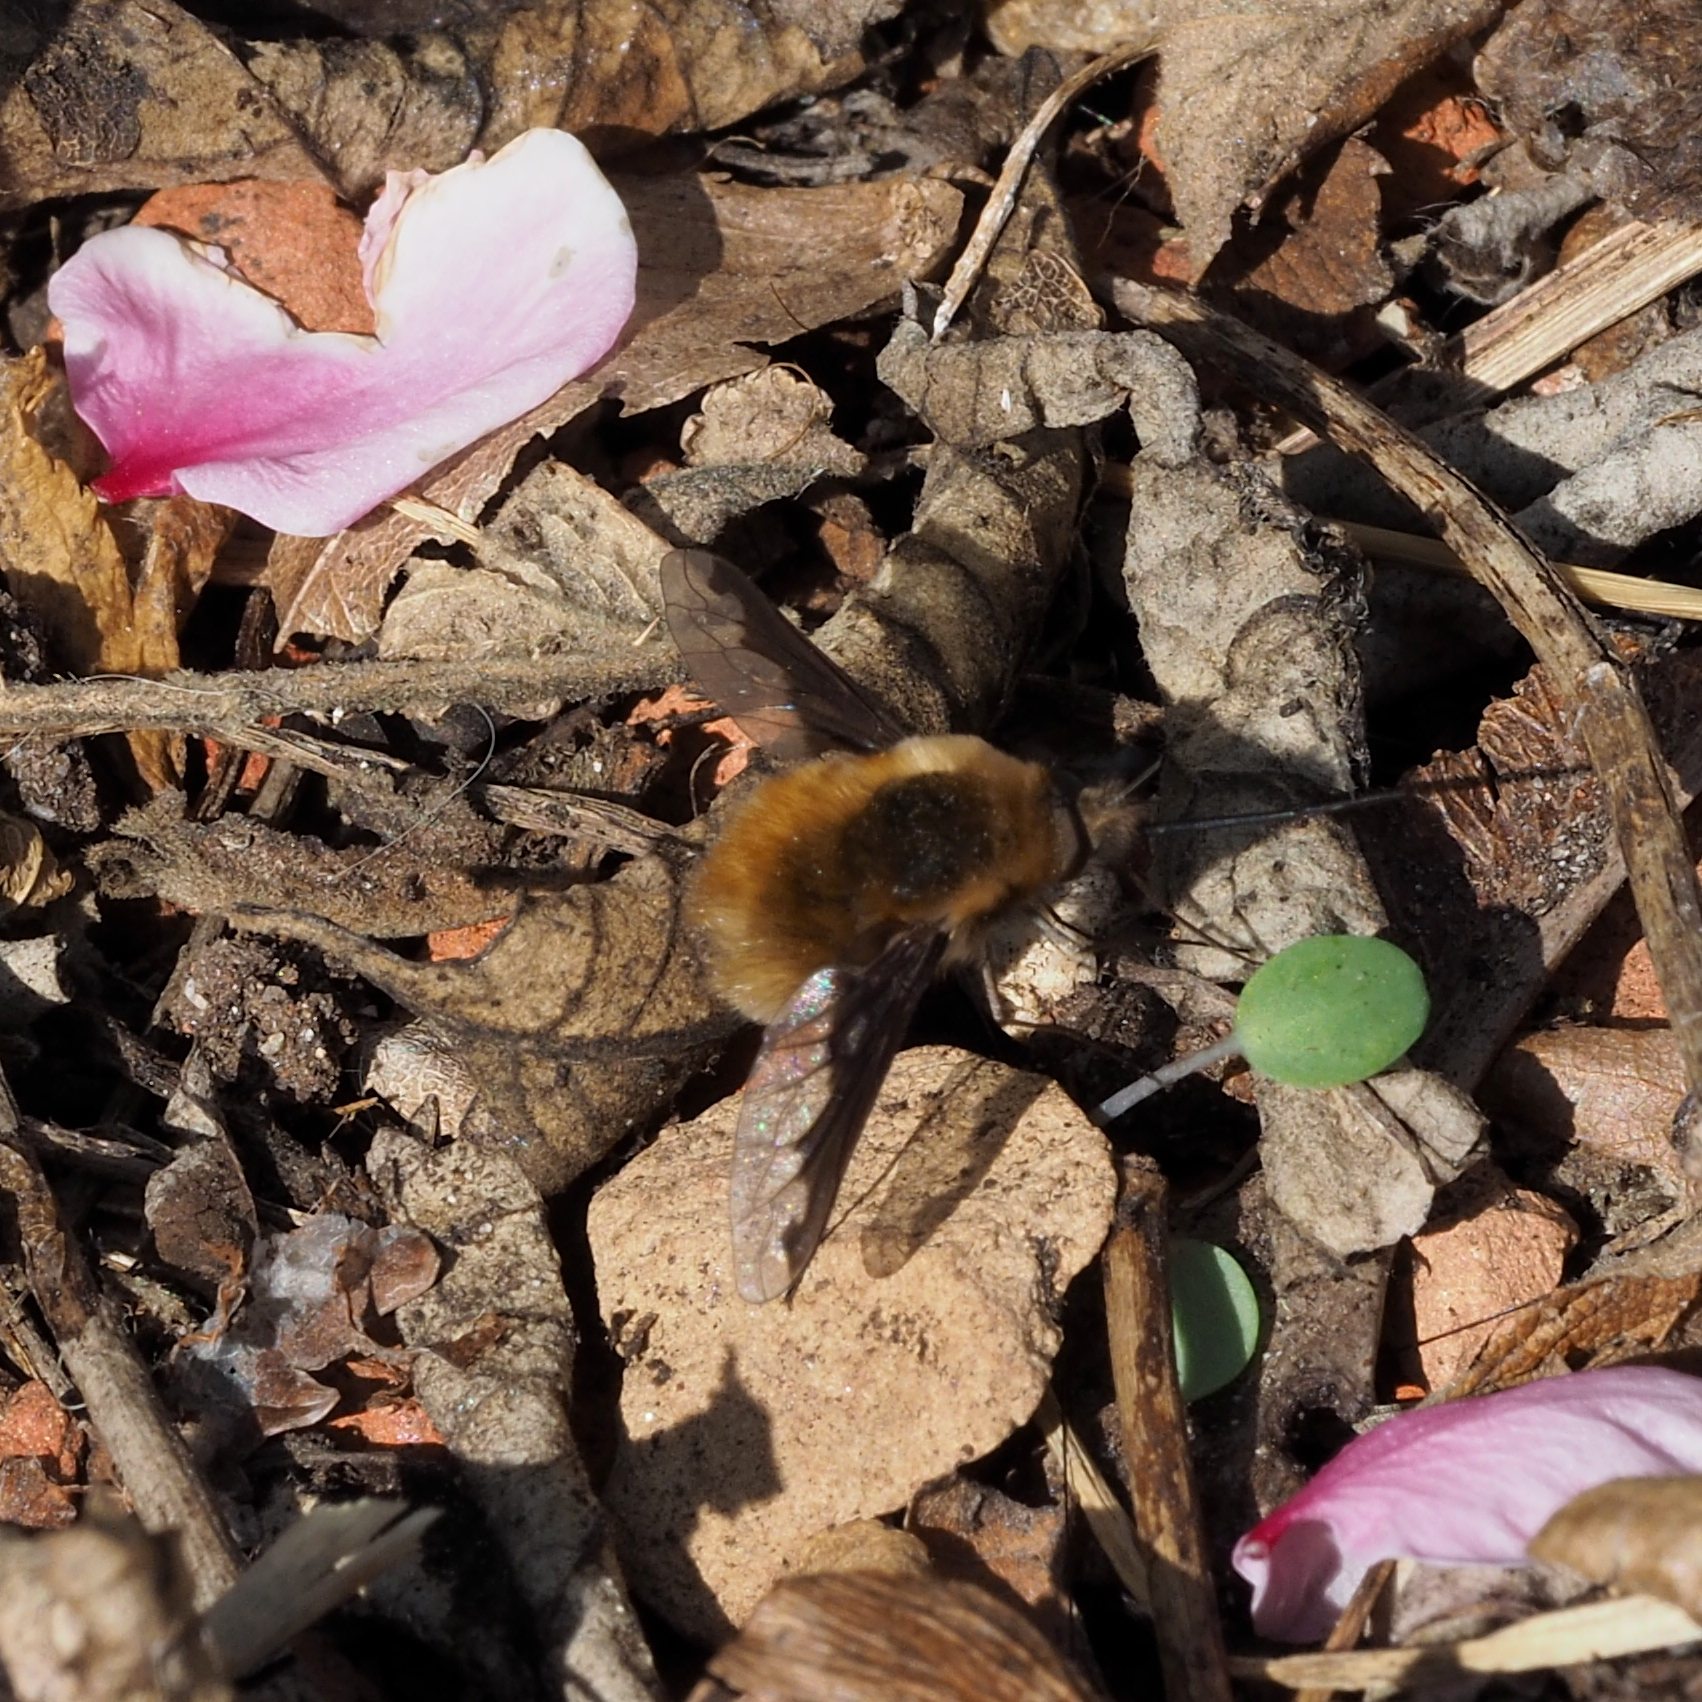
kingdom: Animalia
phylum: Arthropoda
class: Insecta
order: Diptera
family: Bombyliidae
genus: Bombylius
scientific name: Bombylius major
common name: Bee fly
